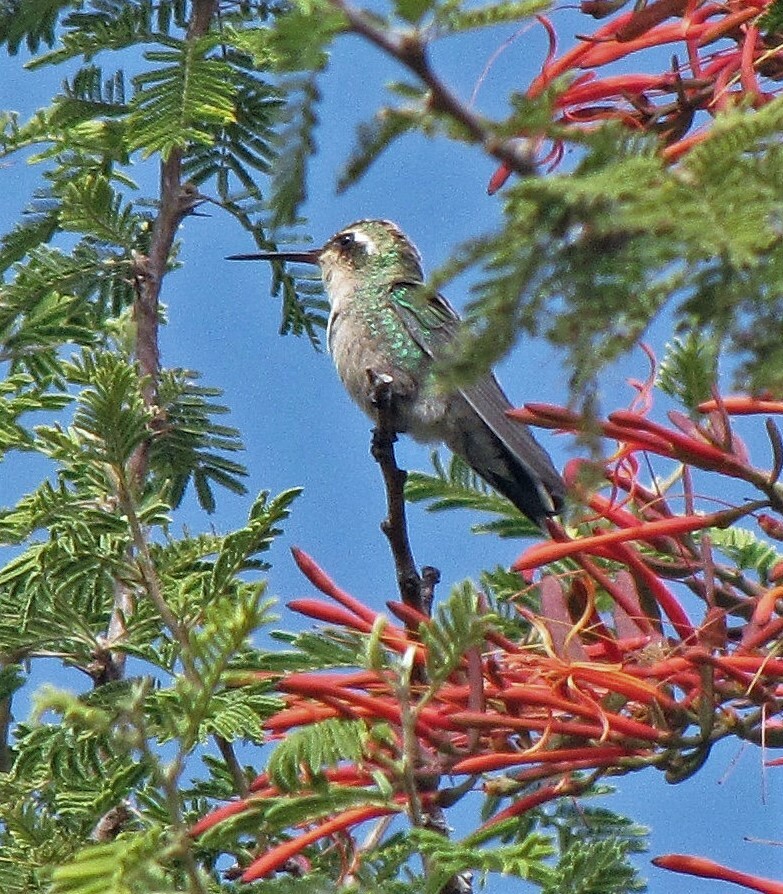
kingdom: Animalia
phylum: Chordata
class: Aves
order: Apodiformes
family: Trochilidae
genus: Chlorostilbon
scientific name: Chlorostilbon lucidus
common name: Glittering-bellied emerald
